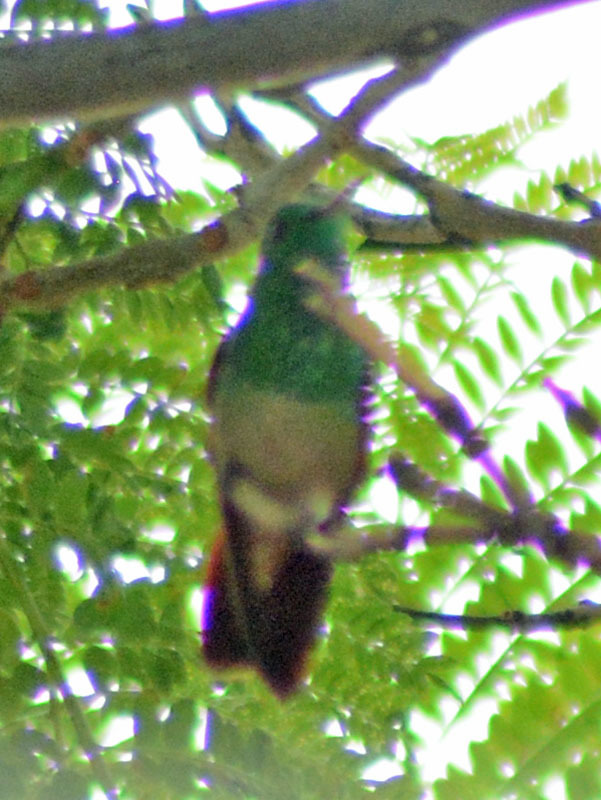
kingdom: Animalia
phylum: Chordata
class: Aves
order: Apodiformes
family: Trochilidae
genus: Saucerottia
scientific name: Saucerottia beryllina
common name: Berylline hummingbird
